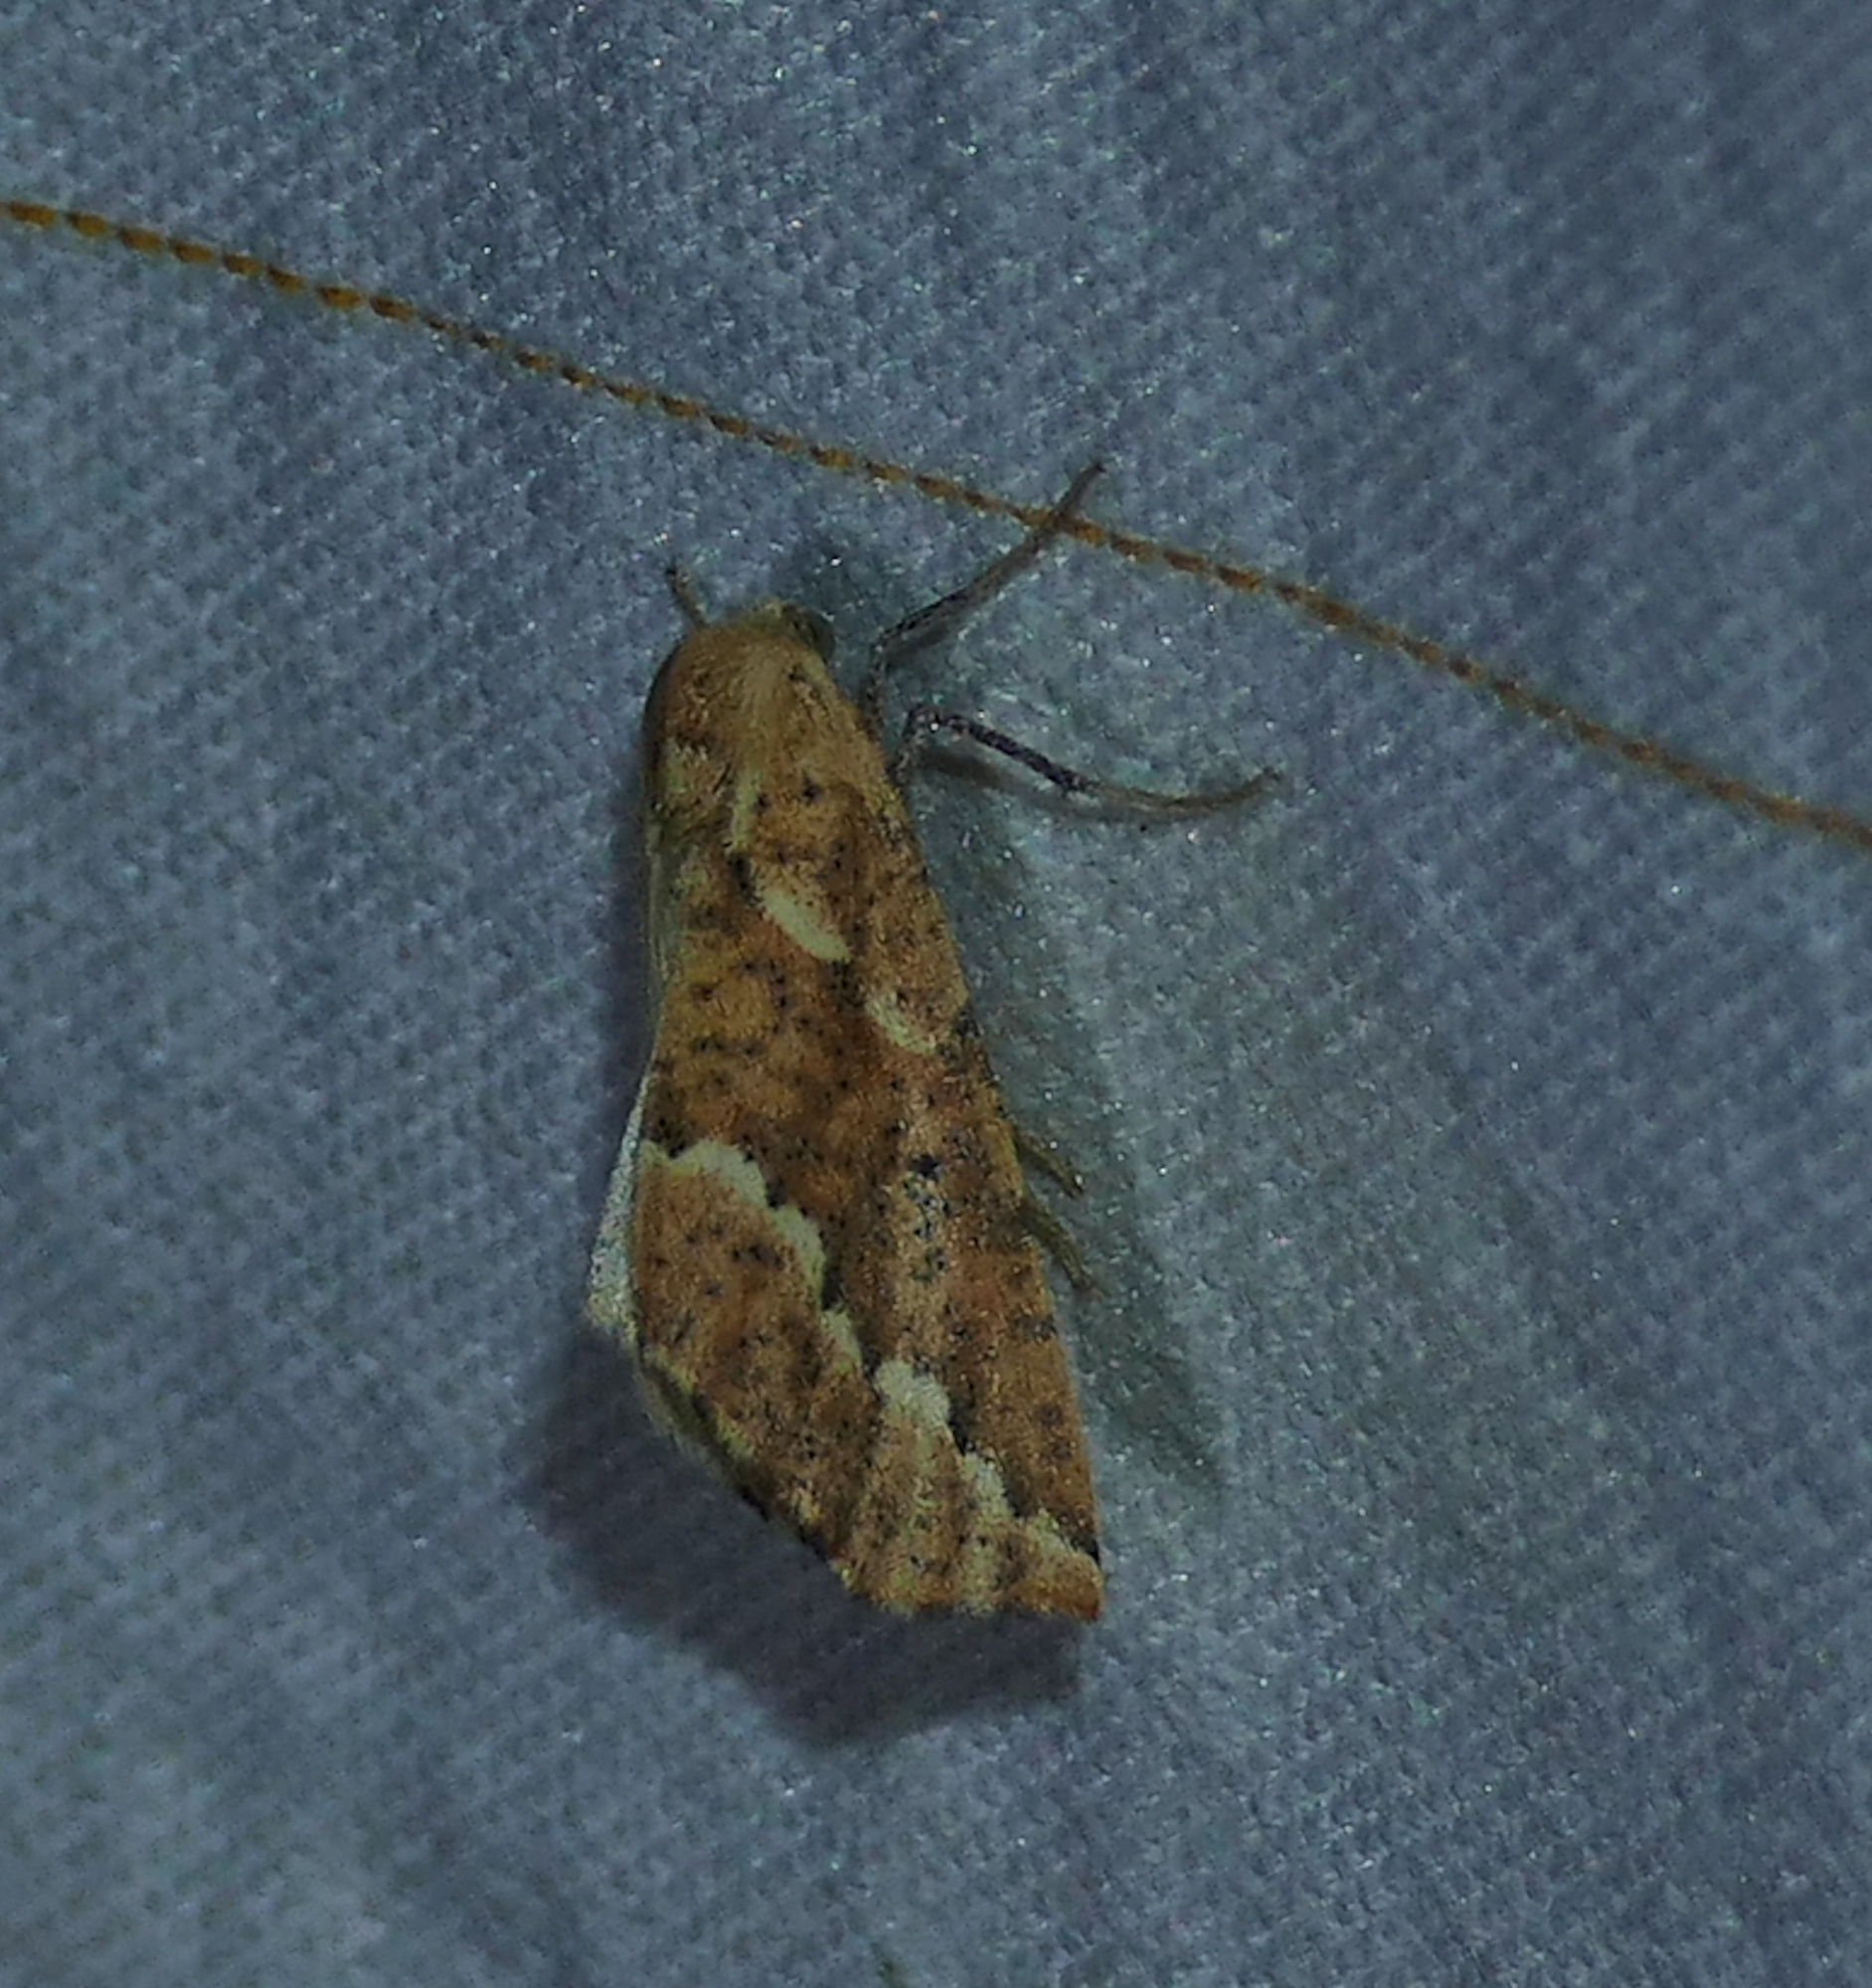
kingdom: Animalia
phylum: Arthropoda
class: Insecta
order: Lepidoptera
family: Geometridae
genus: Sicya
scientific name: Sicya morsicaria
